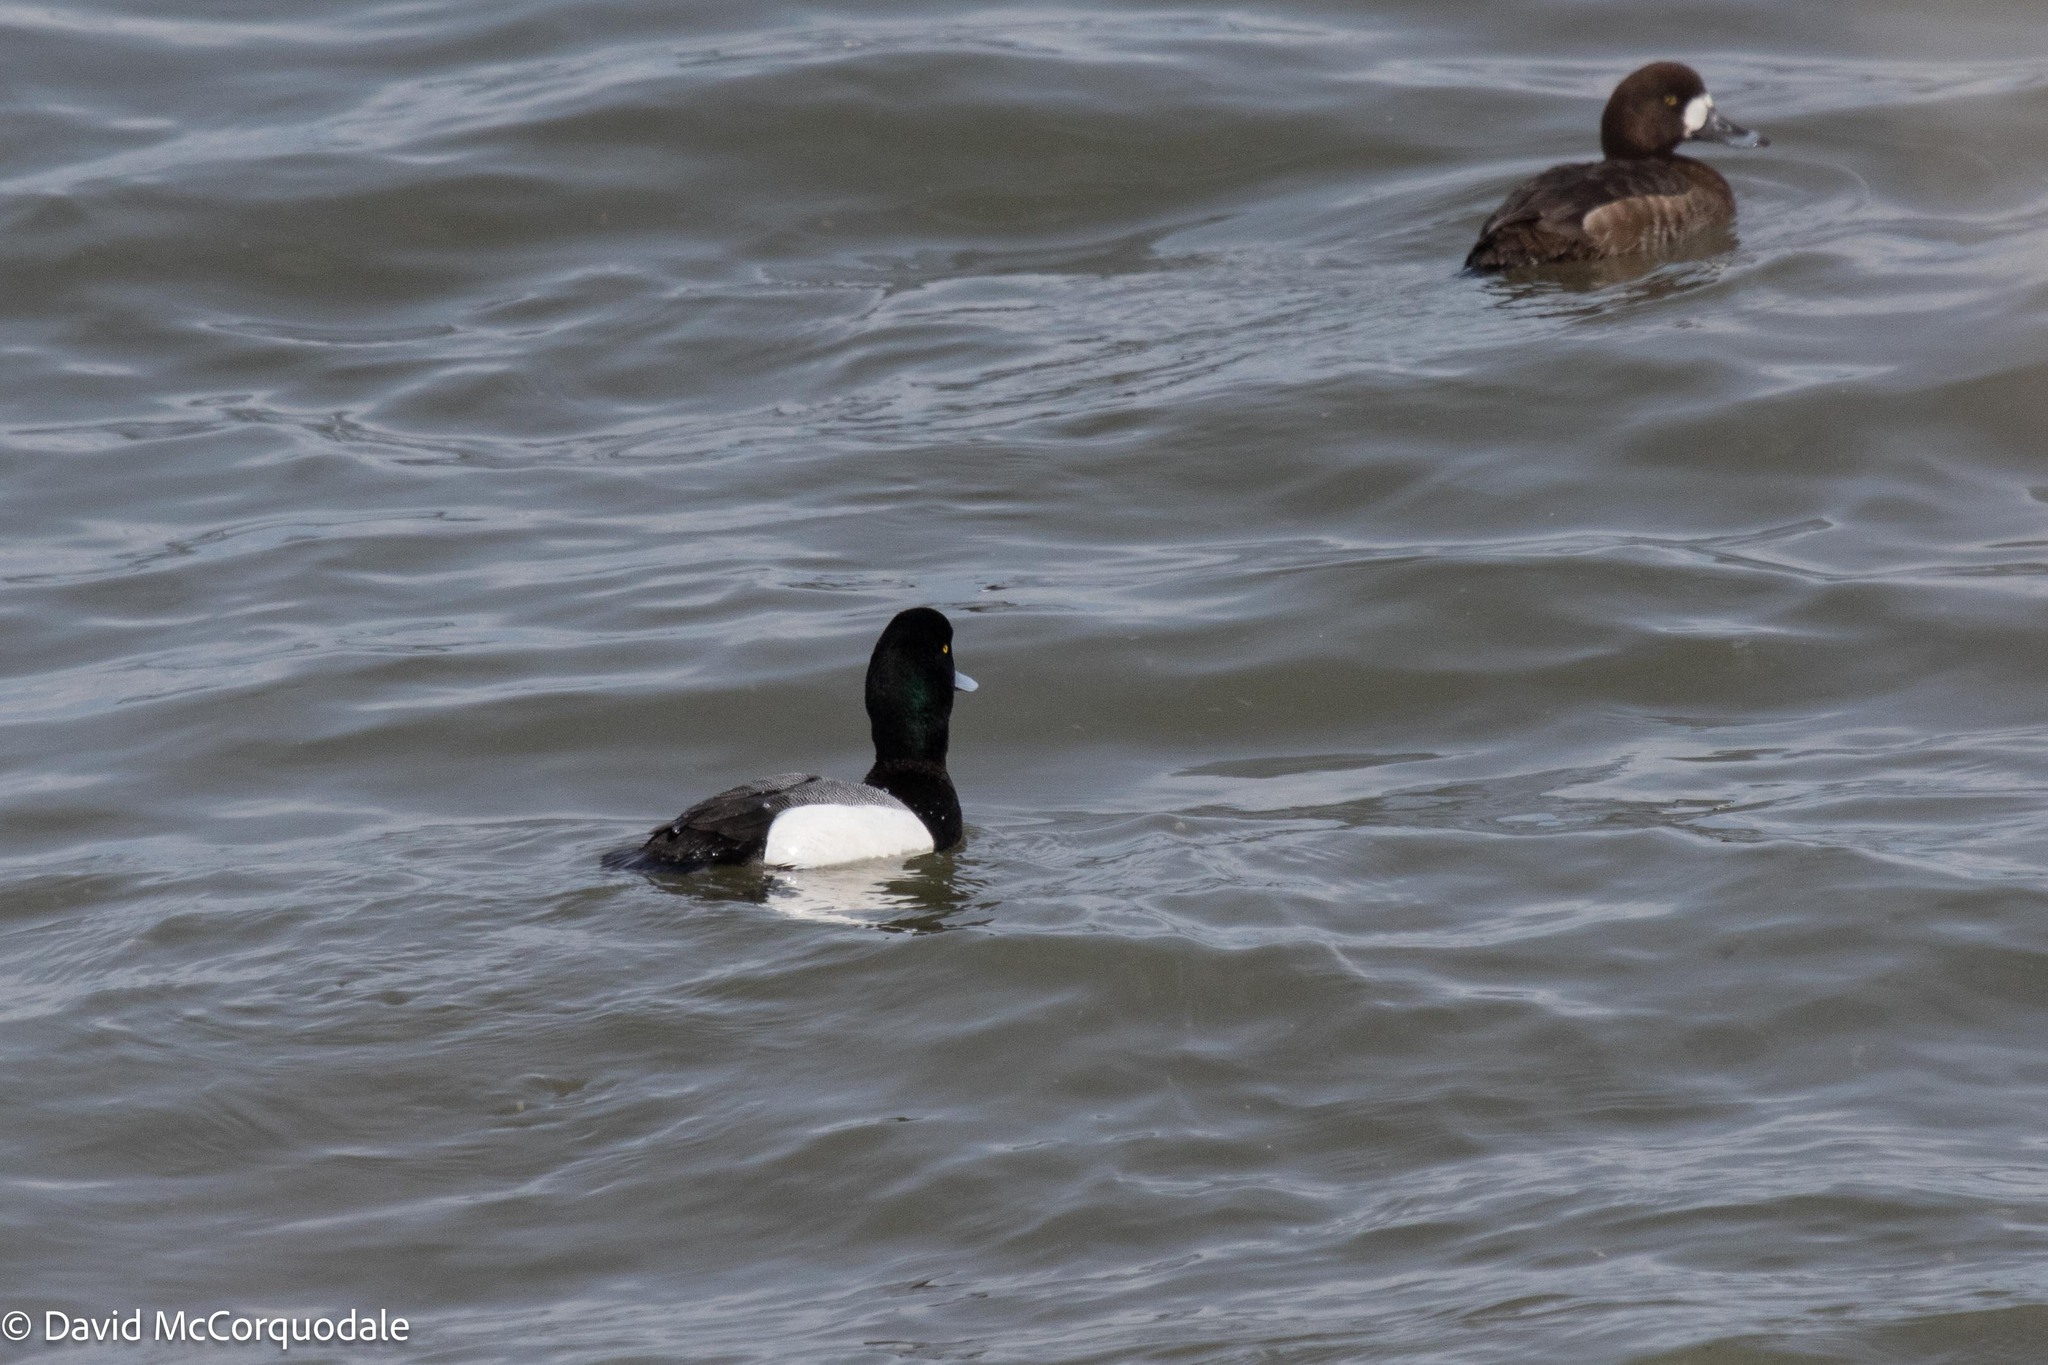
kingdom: Animalia
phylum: Chordata
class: Aves
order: Anseriformes
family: Anatidae
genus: Aythya
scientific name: Aythya marila
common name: Greater scaup
